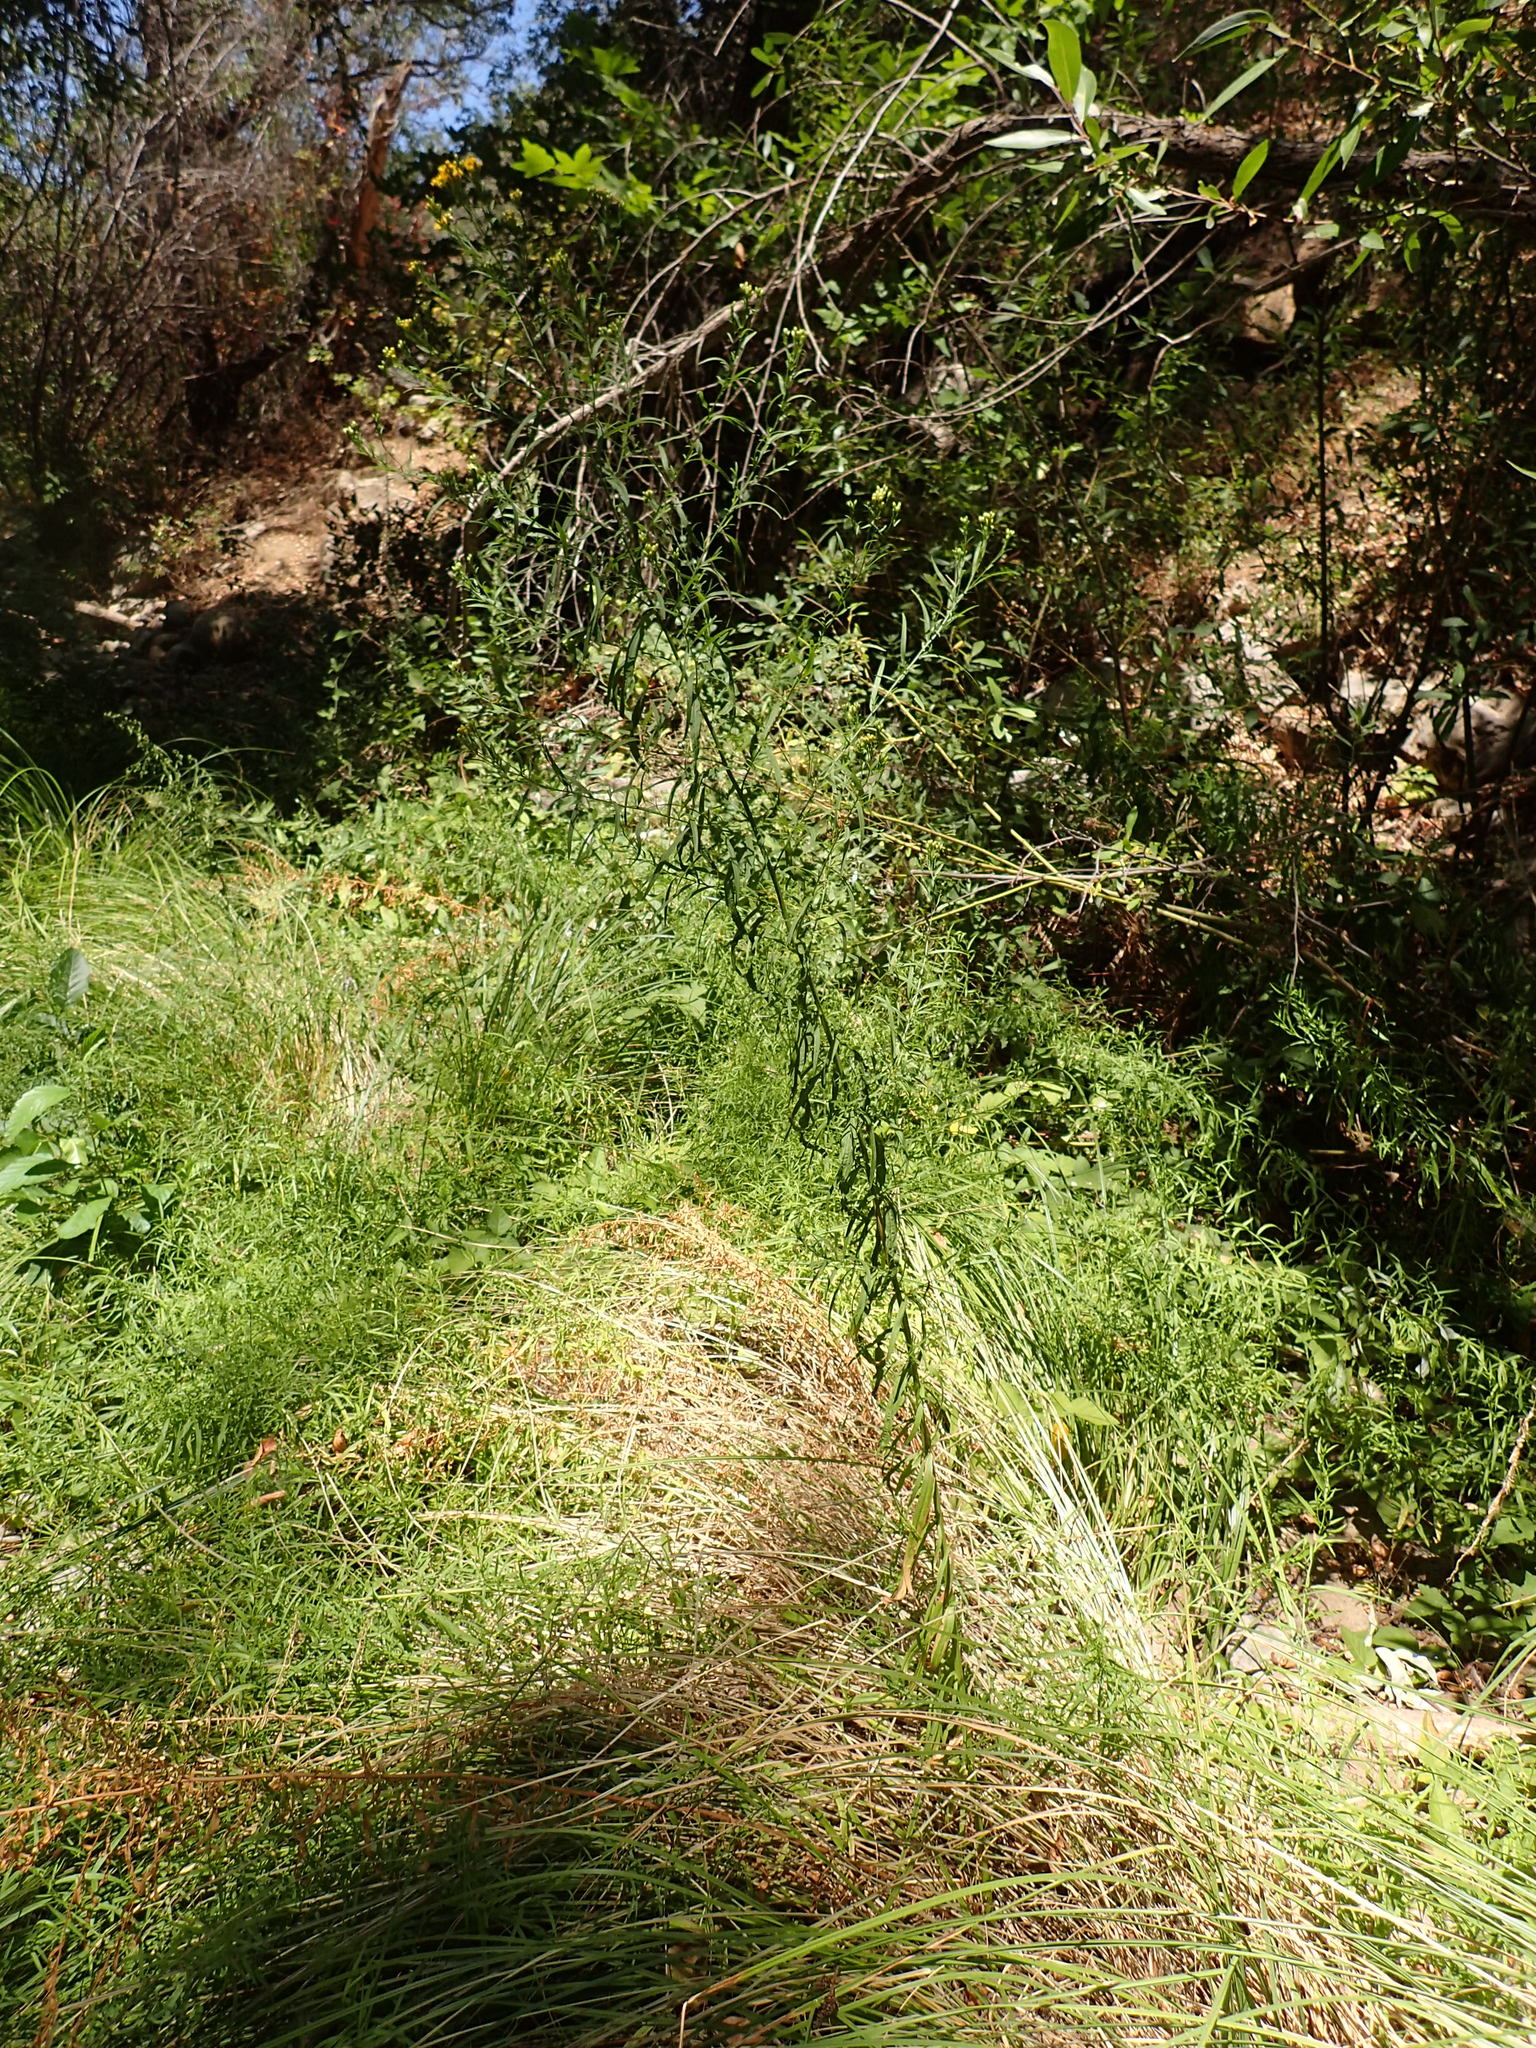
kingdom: Plantae
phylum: Tracheophyta
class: Magnoliopsida
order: Asterales
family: Asteraceae
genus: Euthamia
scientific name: Euthamia occidentalis
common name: Western goldentop
